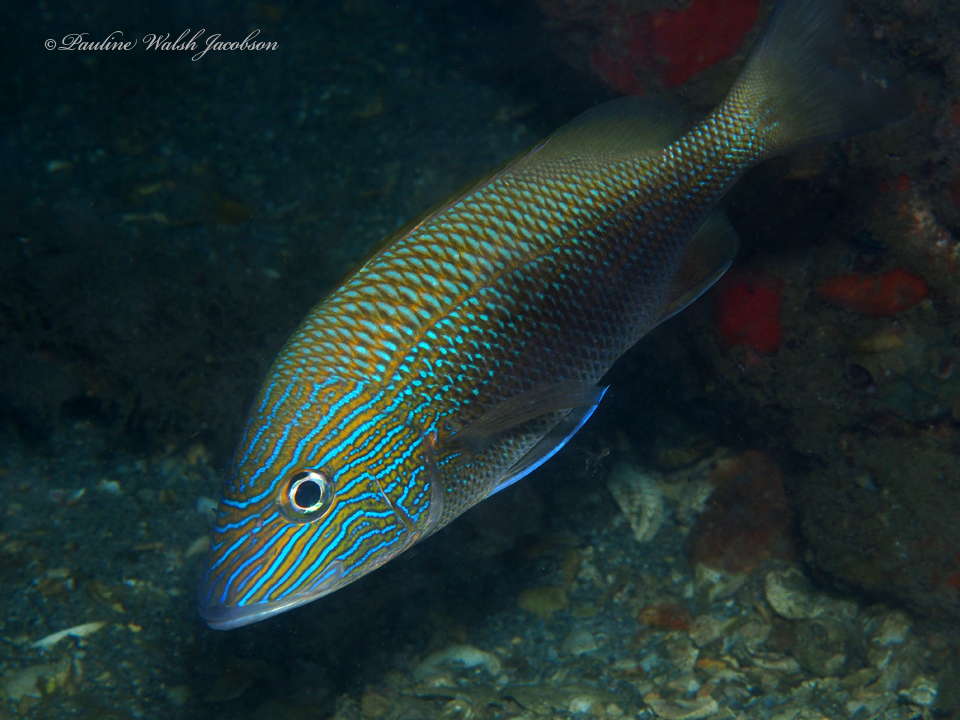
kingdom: Animalia
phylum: Chordata
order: Perciformes
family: Haemulidae
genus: Haemulon
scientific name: Haemulon plumierii
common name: White grunt
